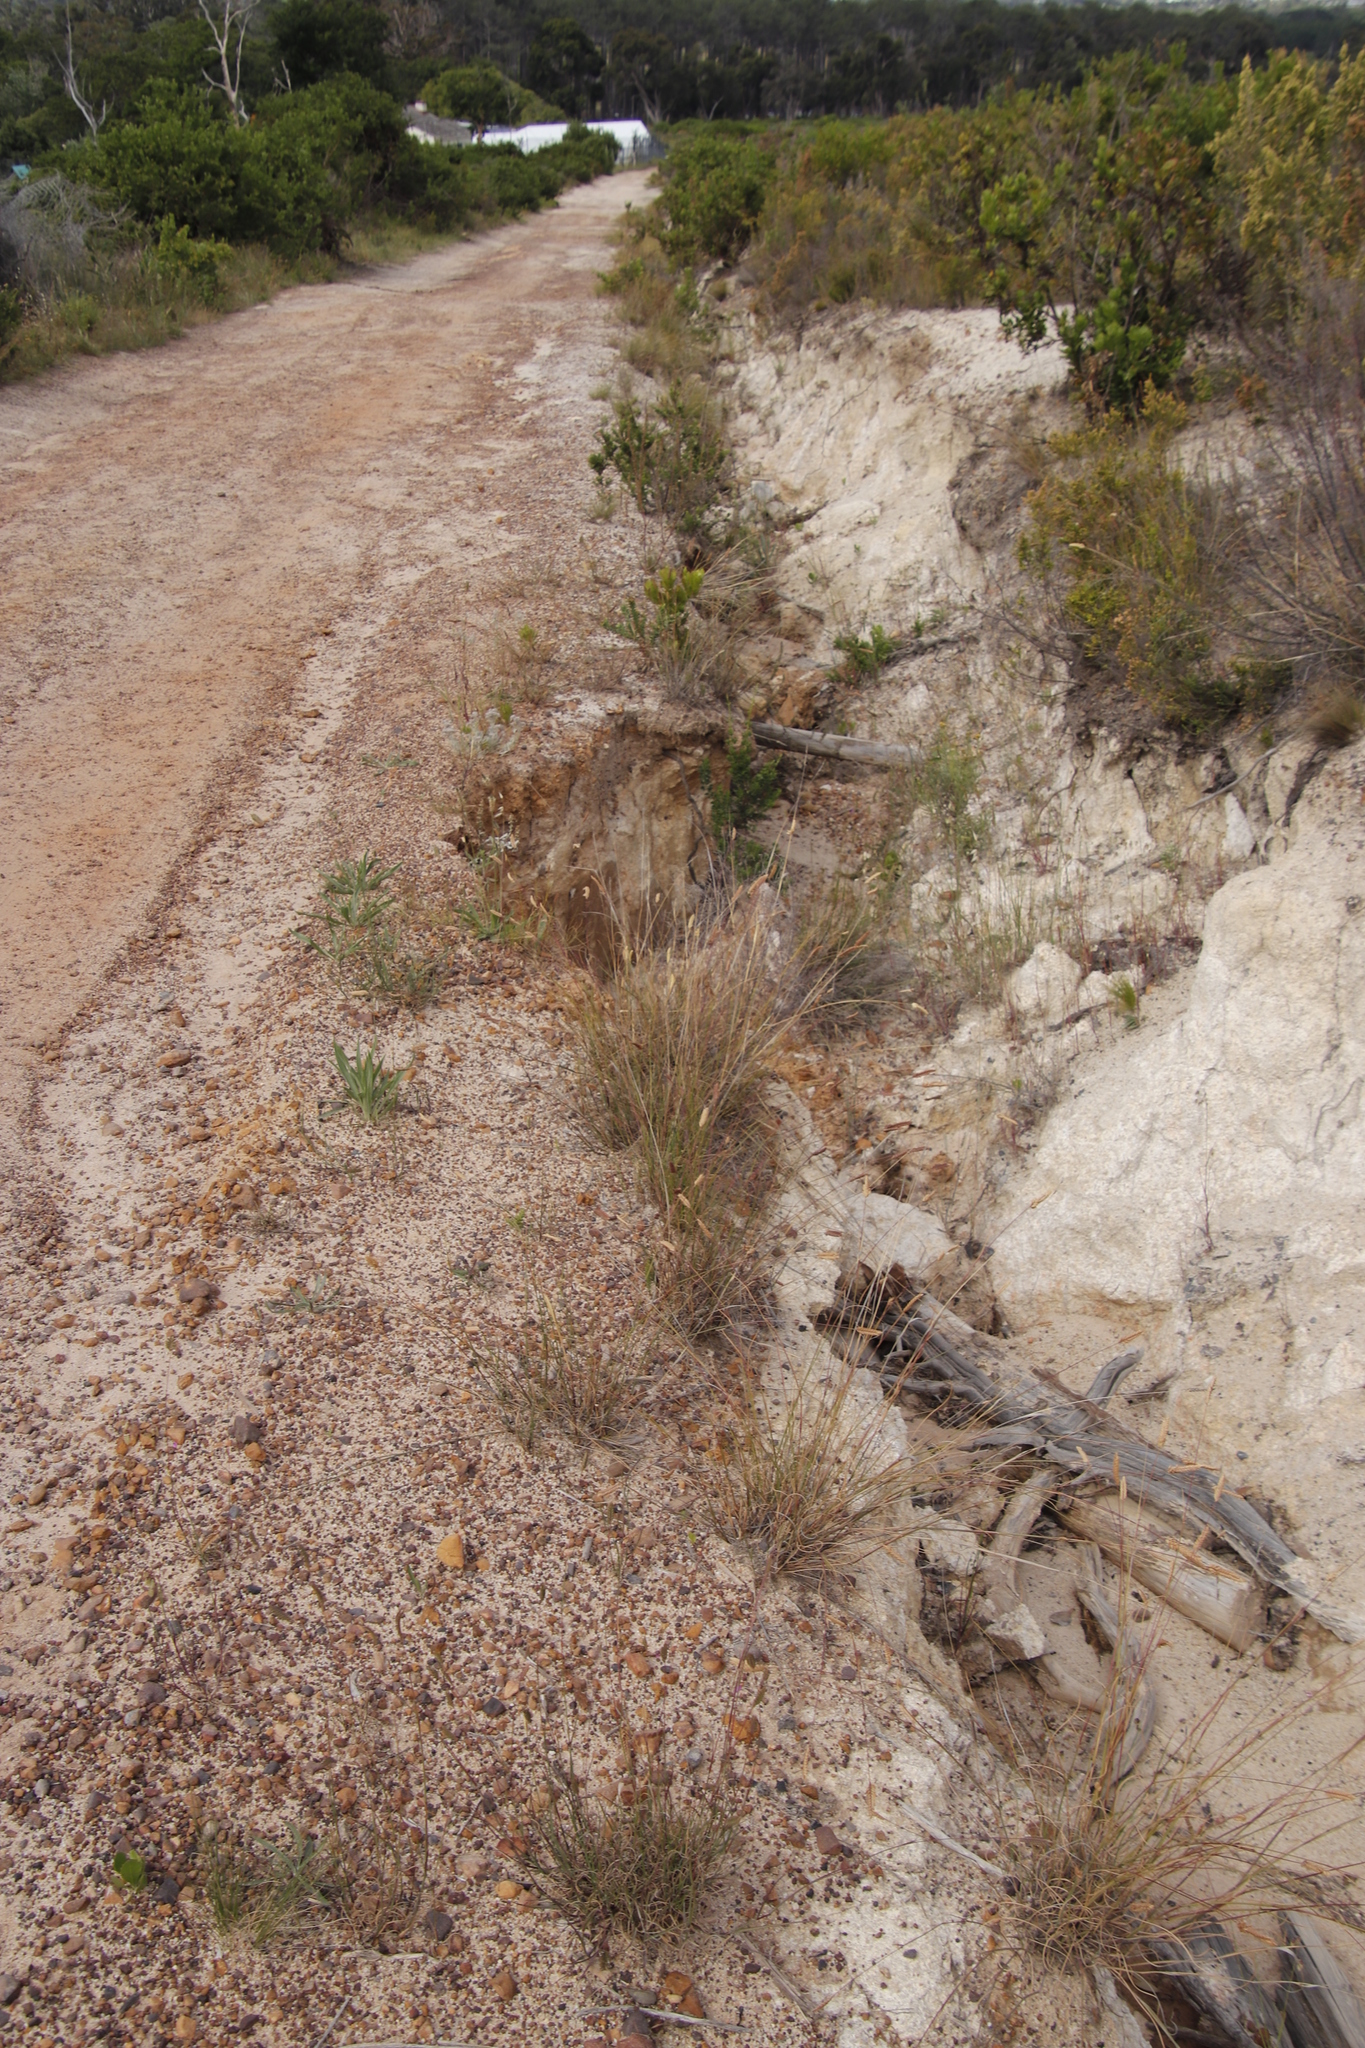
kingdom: Plantae
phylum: Tracheophyta
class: Liliopsida
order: Poales
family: Poaceae
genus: Tribolium
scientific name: Tribolium uniolae
